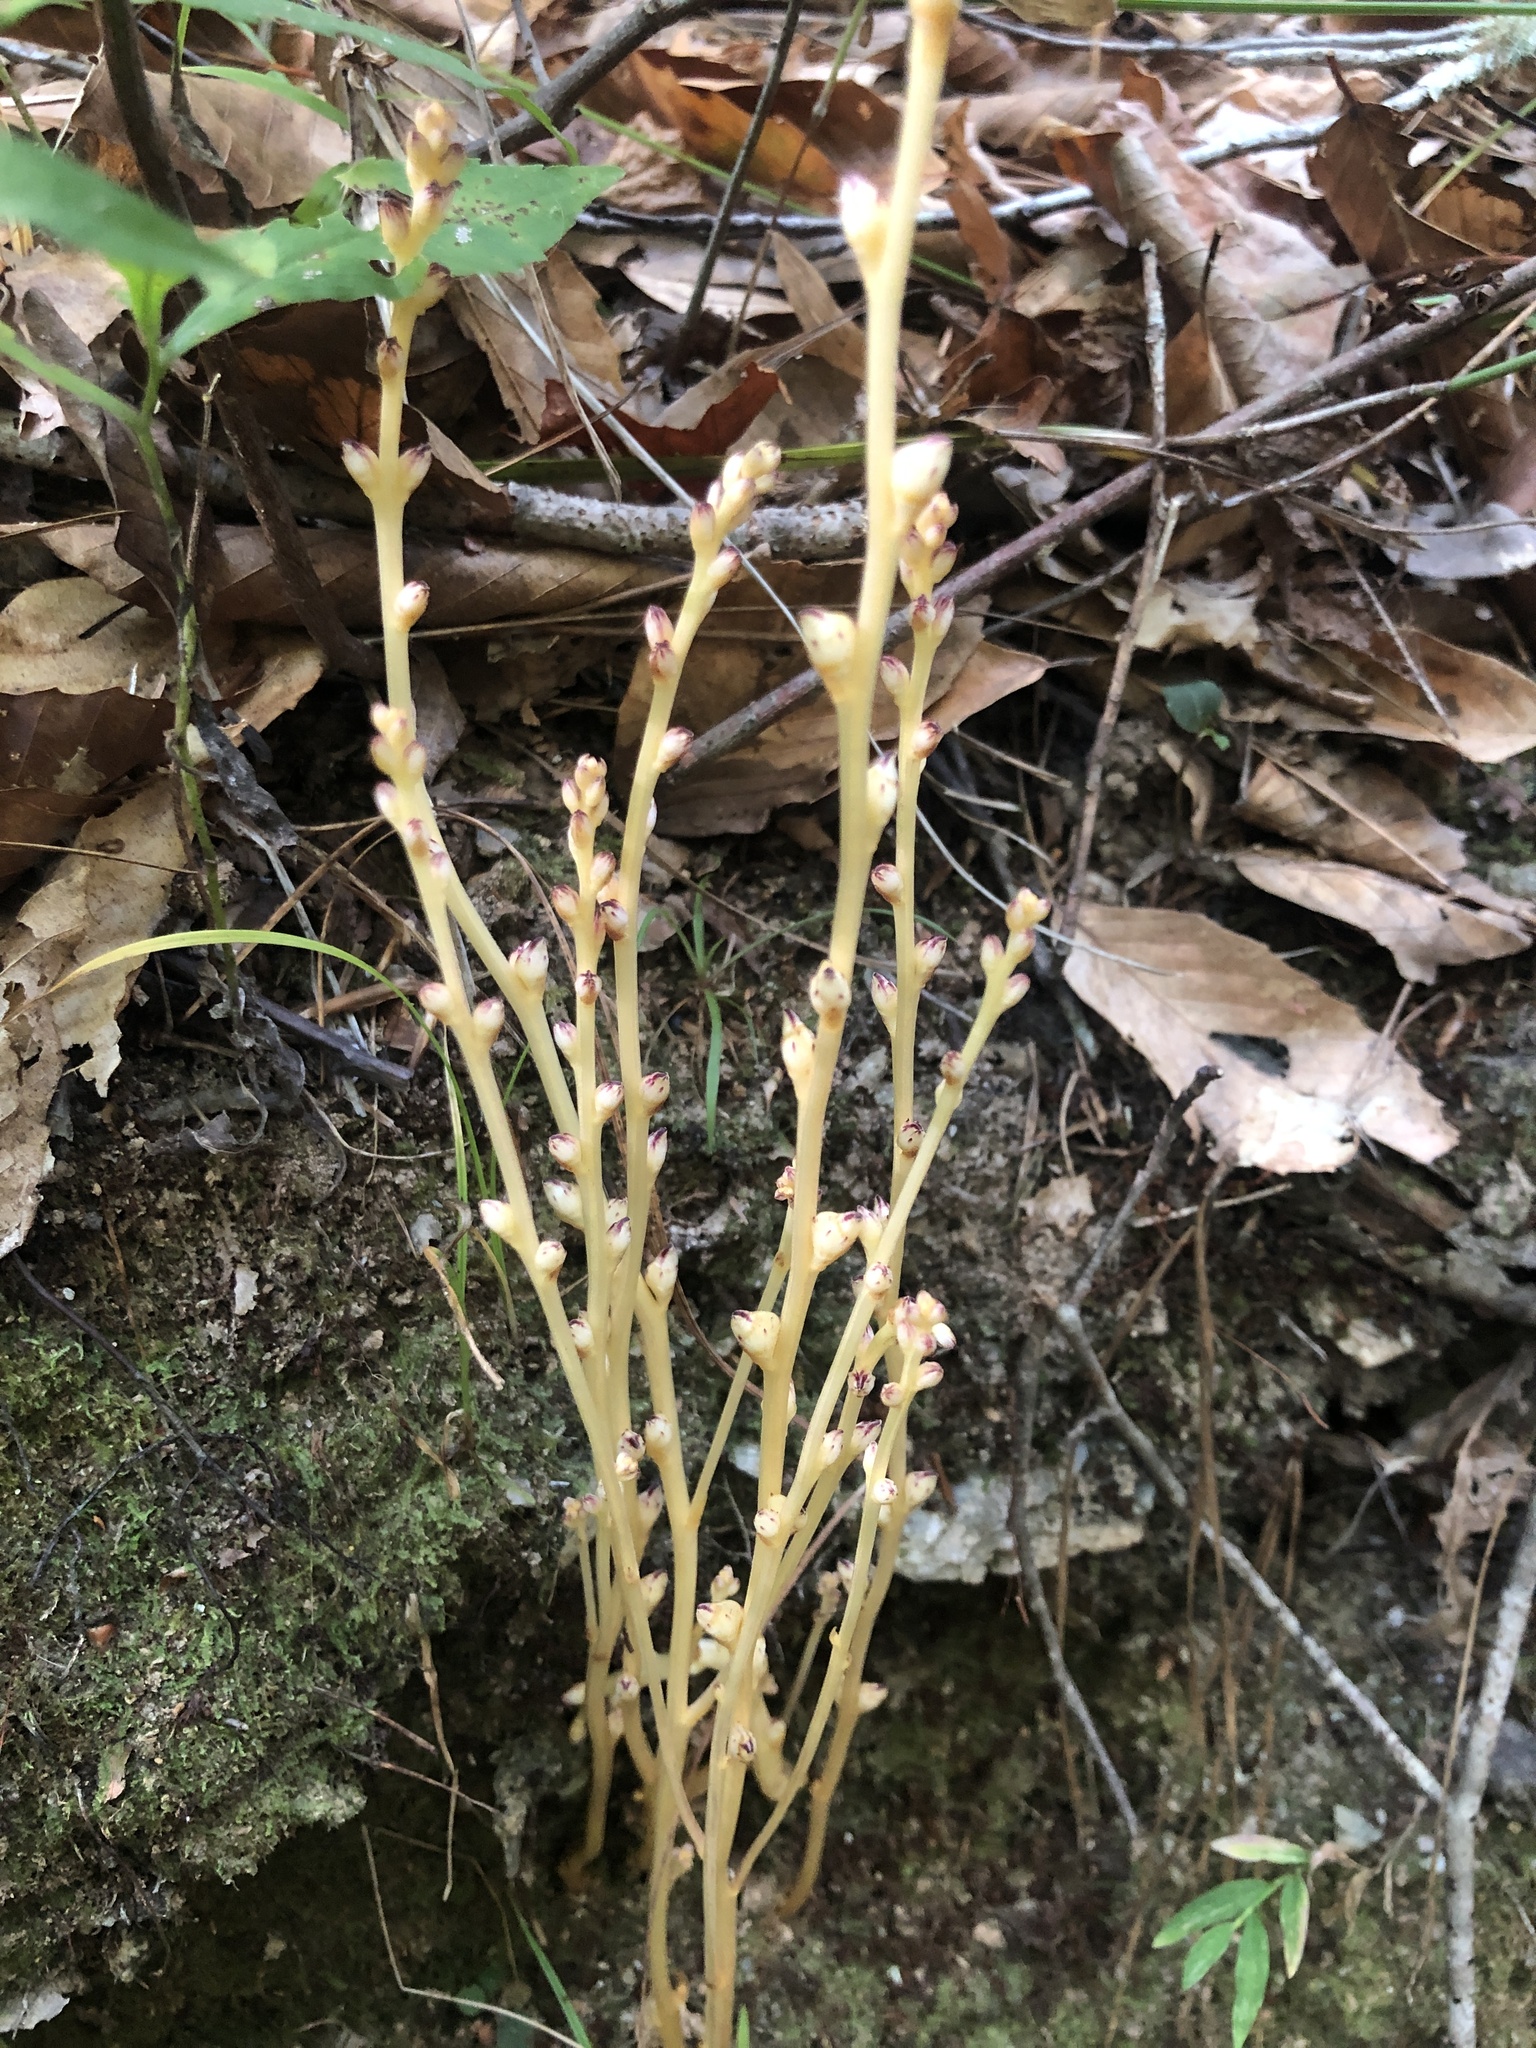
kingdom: Plantae
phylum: Tracheophyta
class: Magnoliopsida
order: Lamiales
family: Orobanchaceae
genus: Epifagus
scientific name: Epifagus virginiana
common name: Beechdrops
